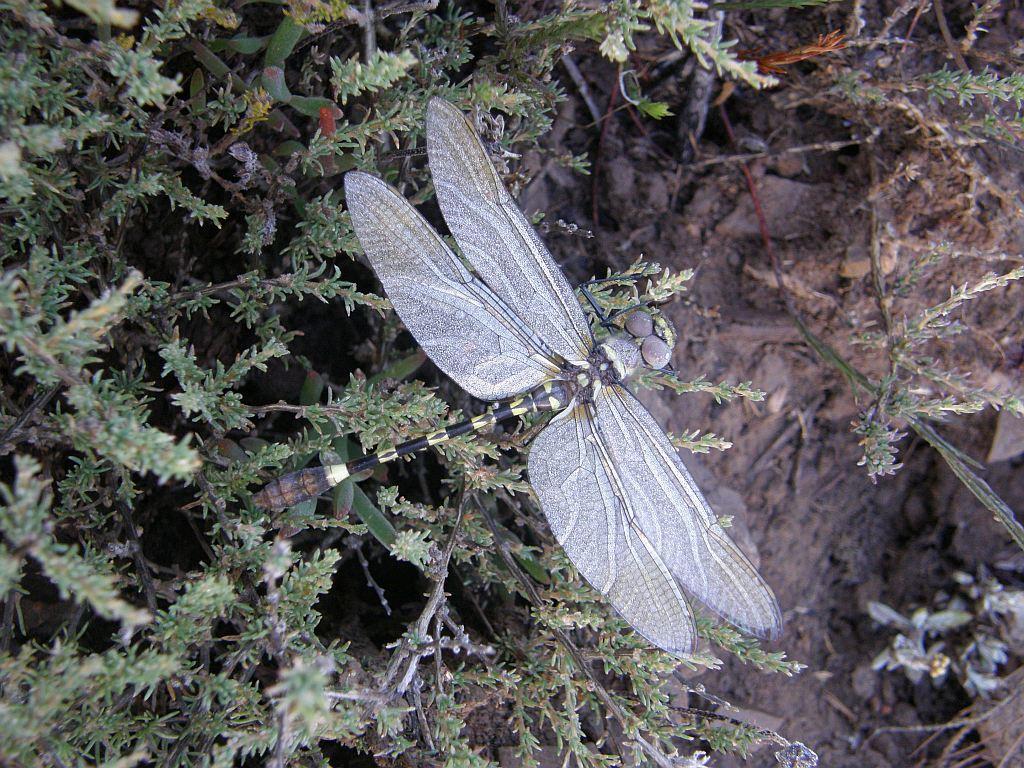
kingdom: Animalia
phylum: Arthropoda
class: Insecta
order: Odonata
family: Macromiidae
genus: Phyllomacromia
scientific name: Phyllomacromia picta
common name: Darting cruiser
